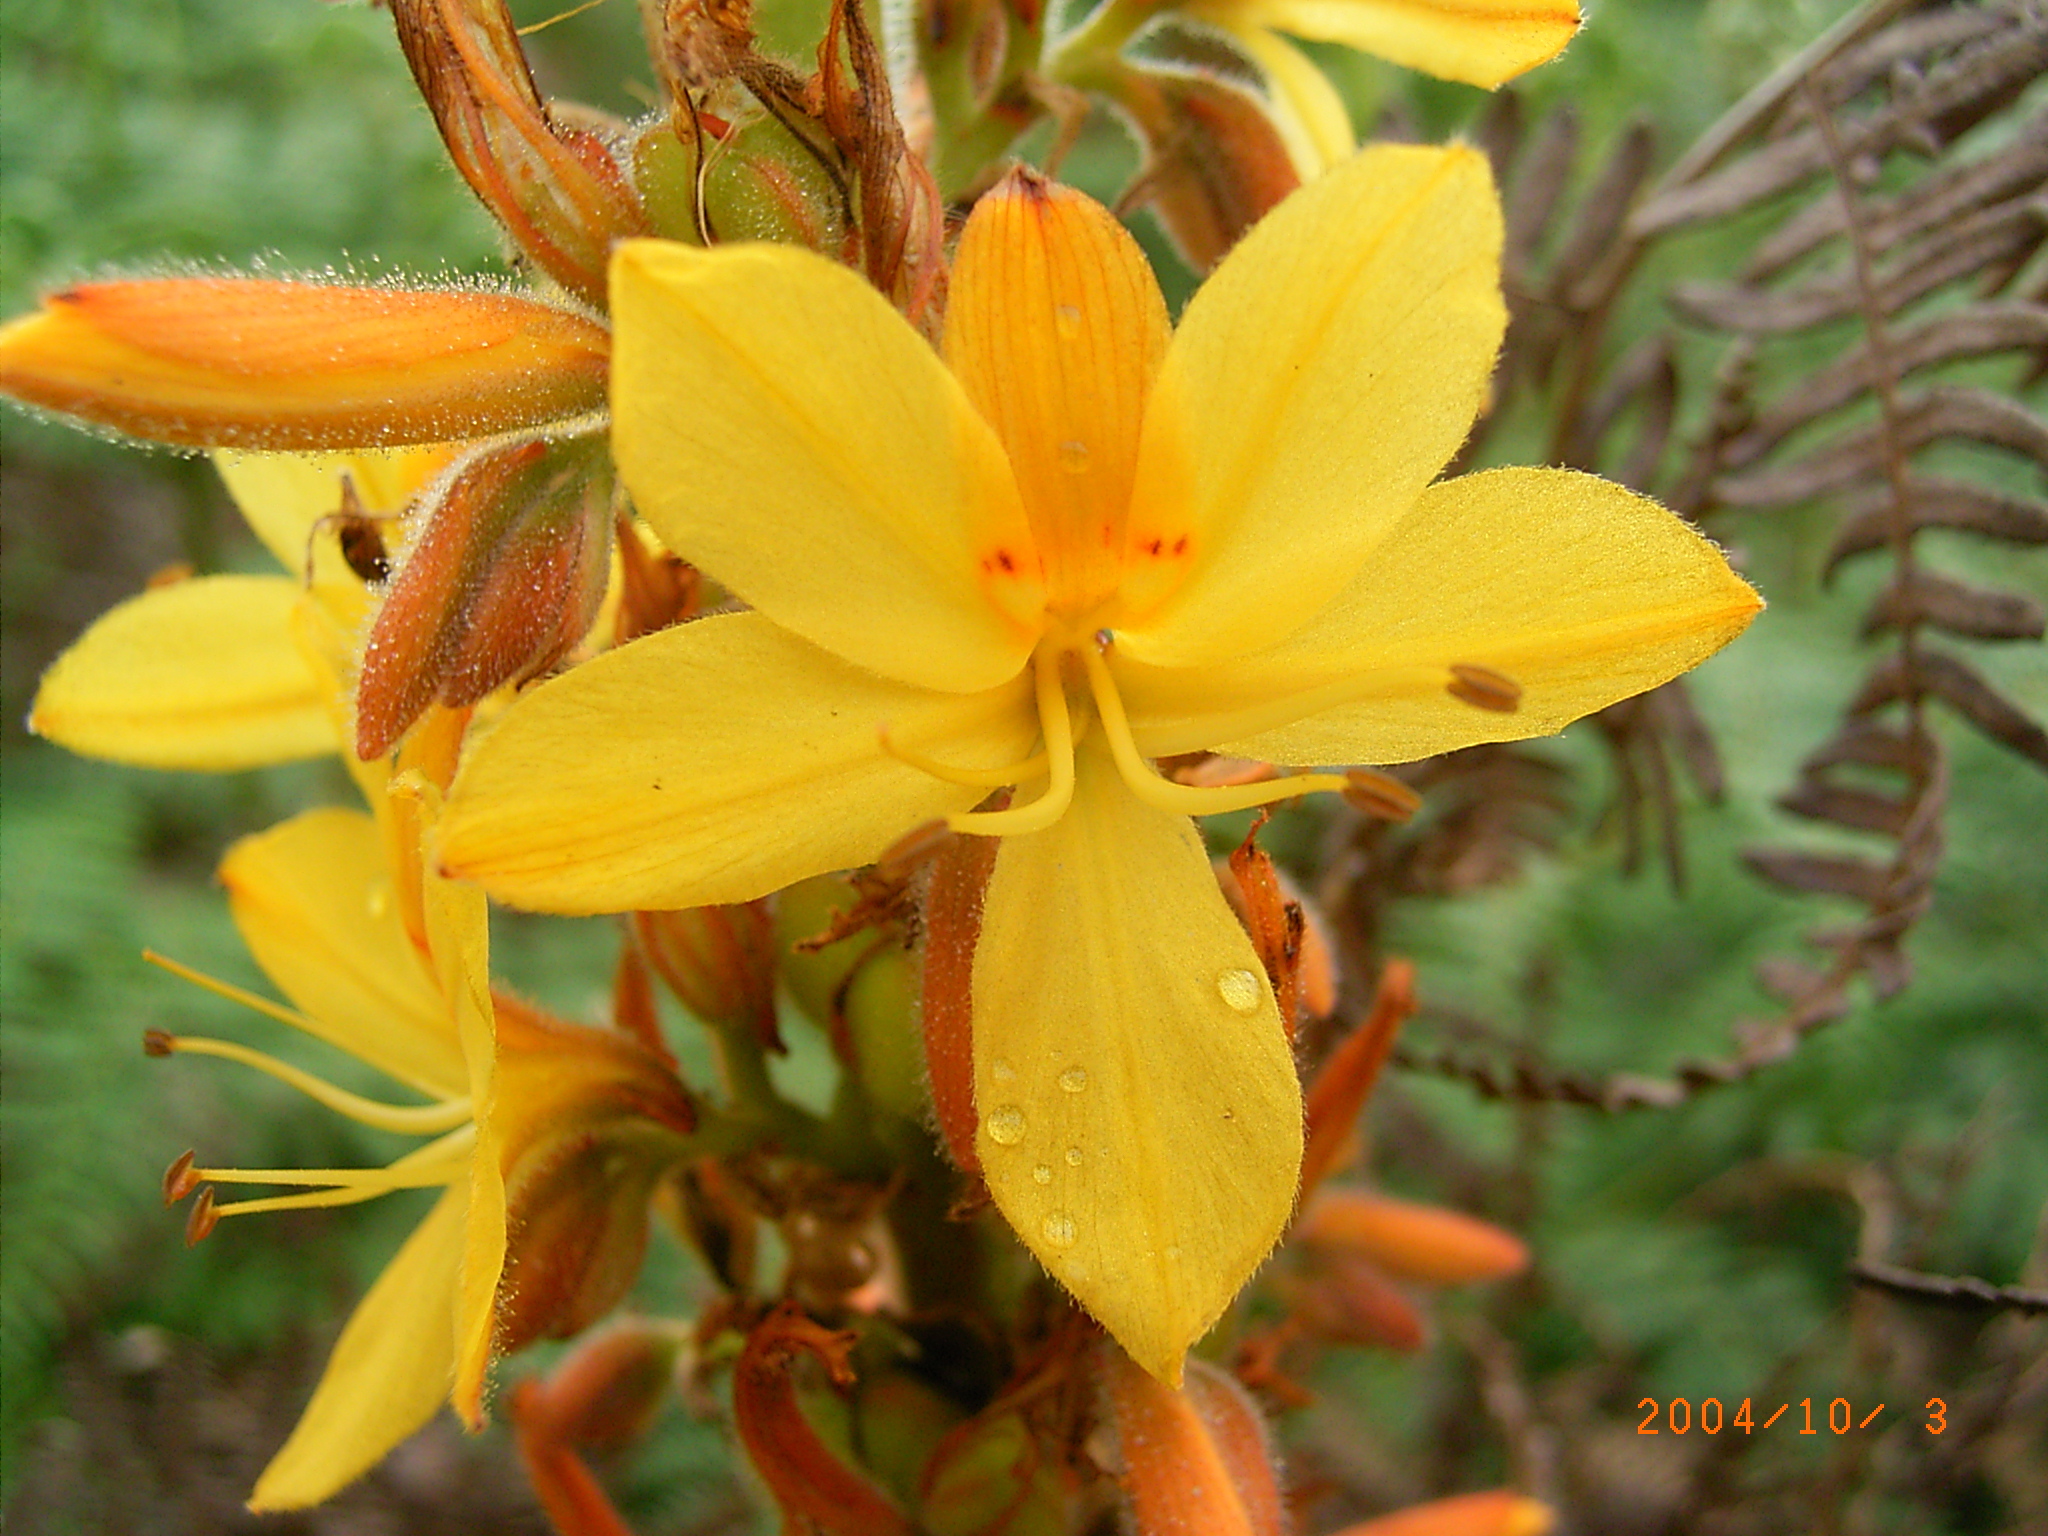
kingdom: Plantae
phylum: Tracheophyta
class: Liliopsida
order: Commelinales
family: Haemodoraceae
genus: Wachendorfia
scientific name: Wachendorfia thyrsiflora
